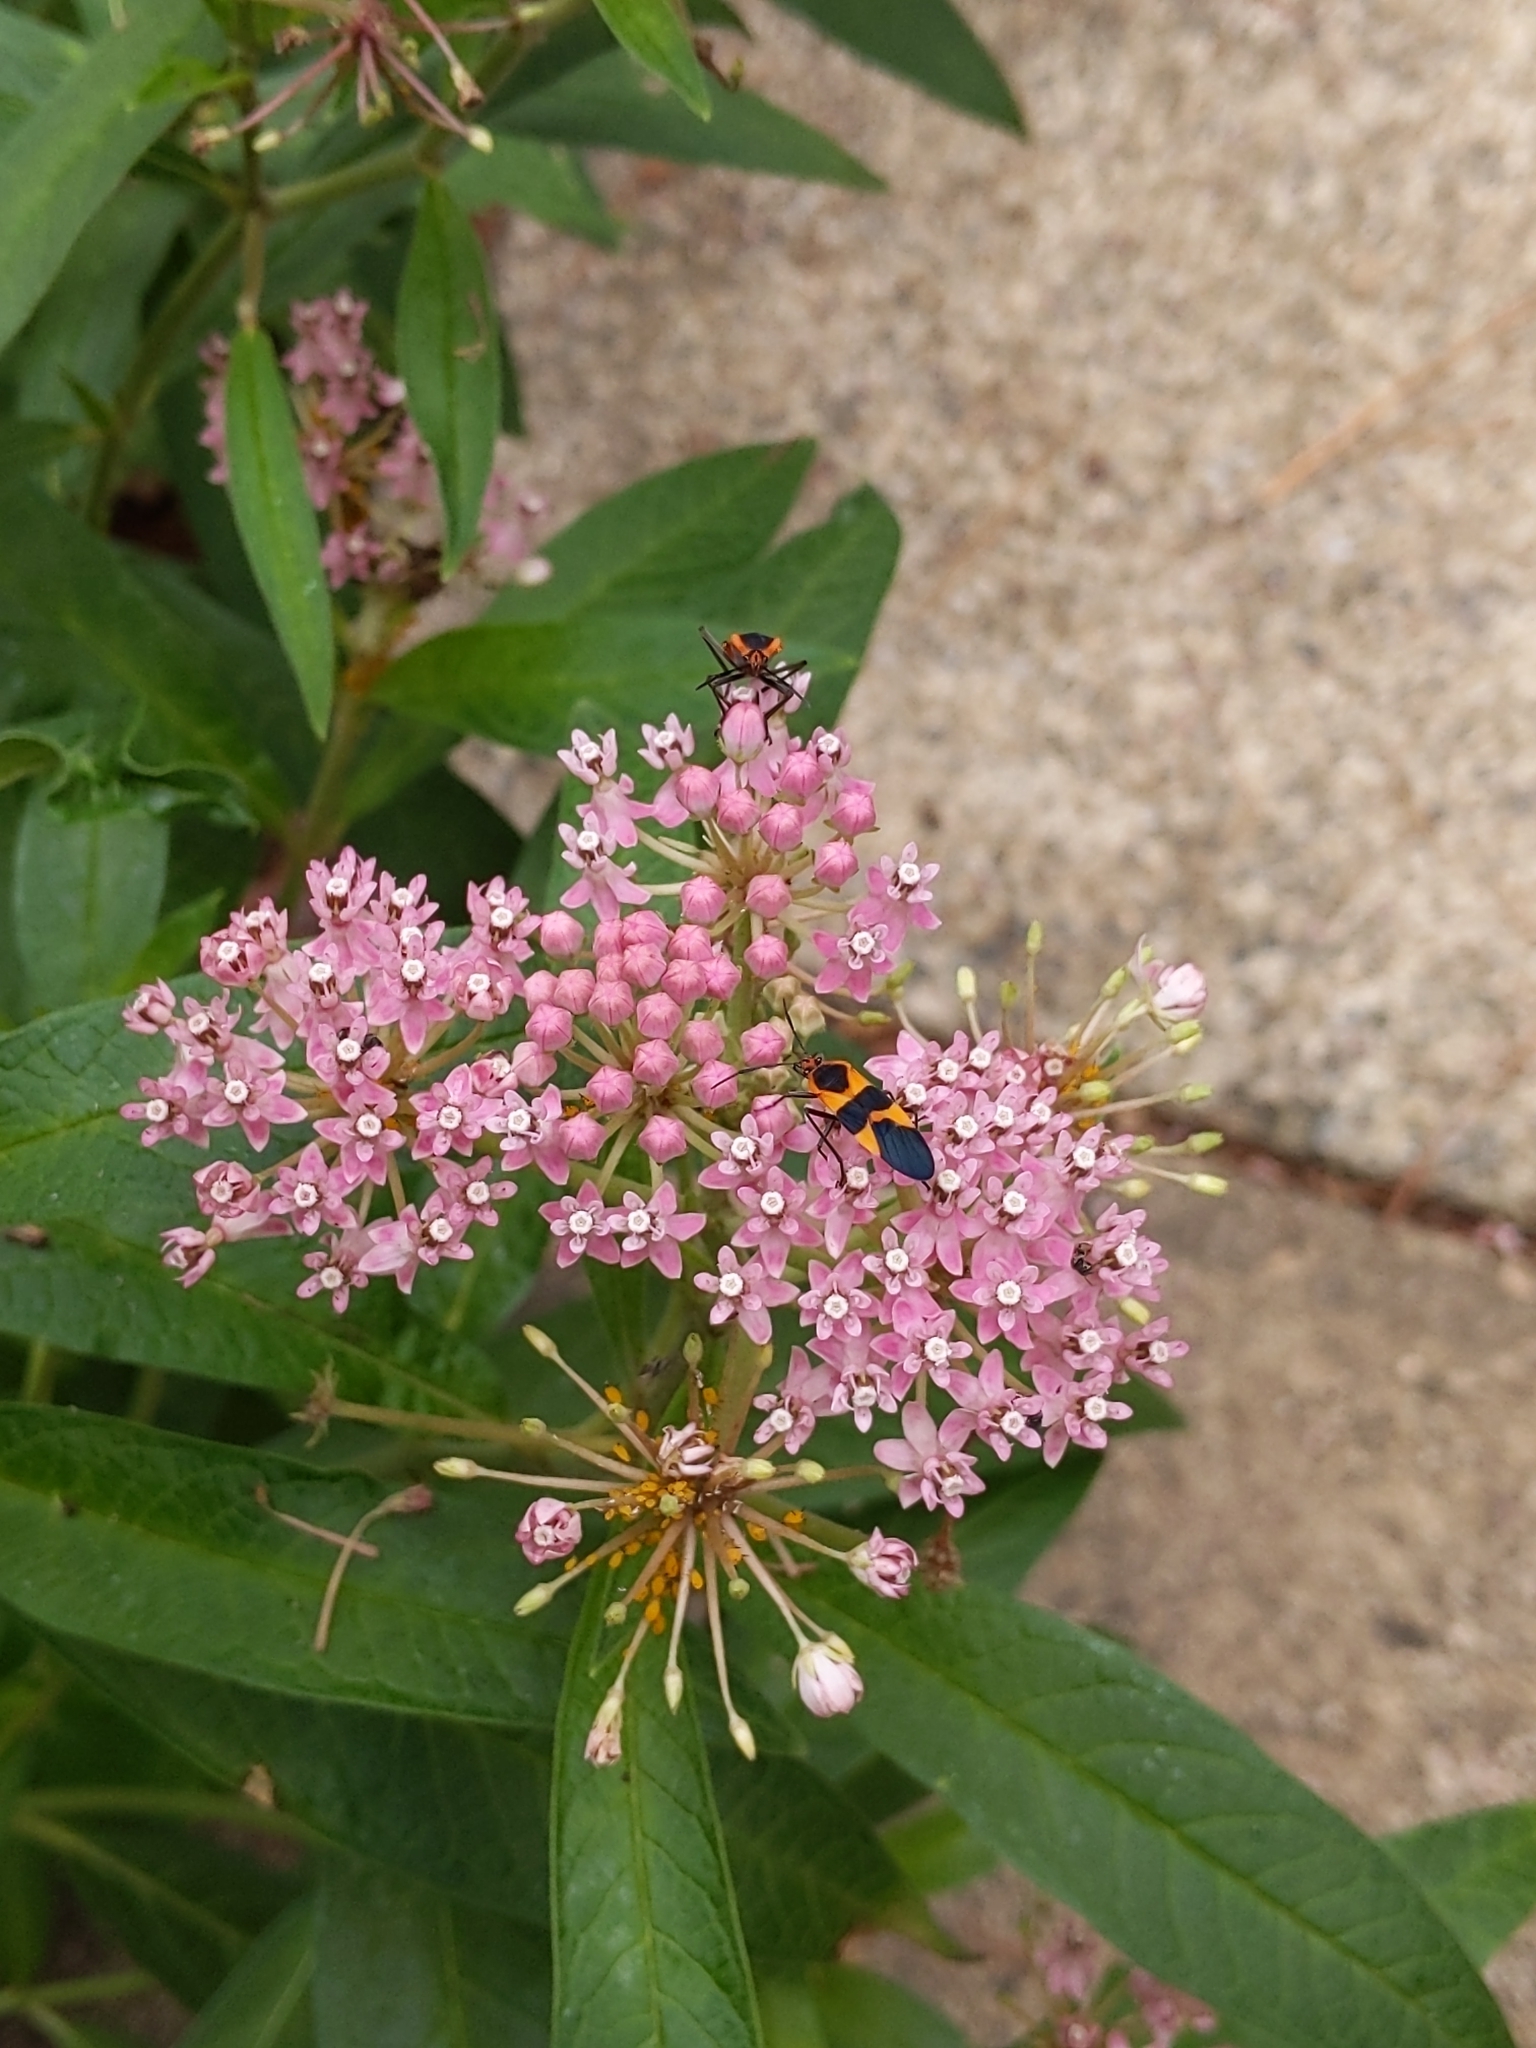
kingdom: Animalia
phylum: Arthropoda
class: Insecta
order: Hemiptera
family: Lygaeidae
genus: Oncopeltus
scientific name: Oncopeltus fasciatus
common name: Large milkweed bug
